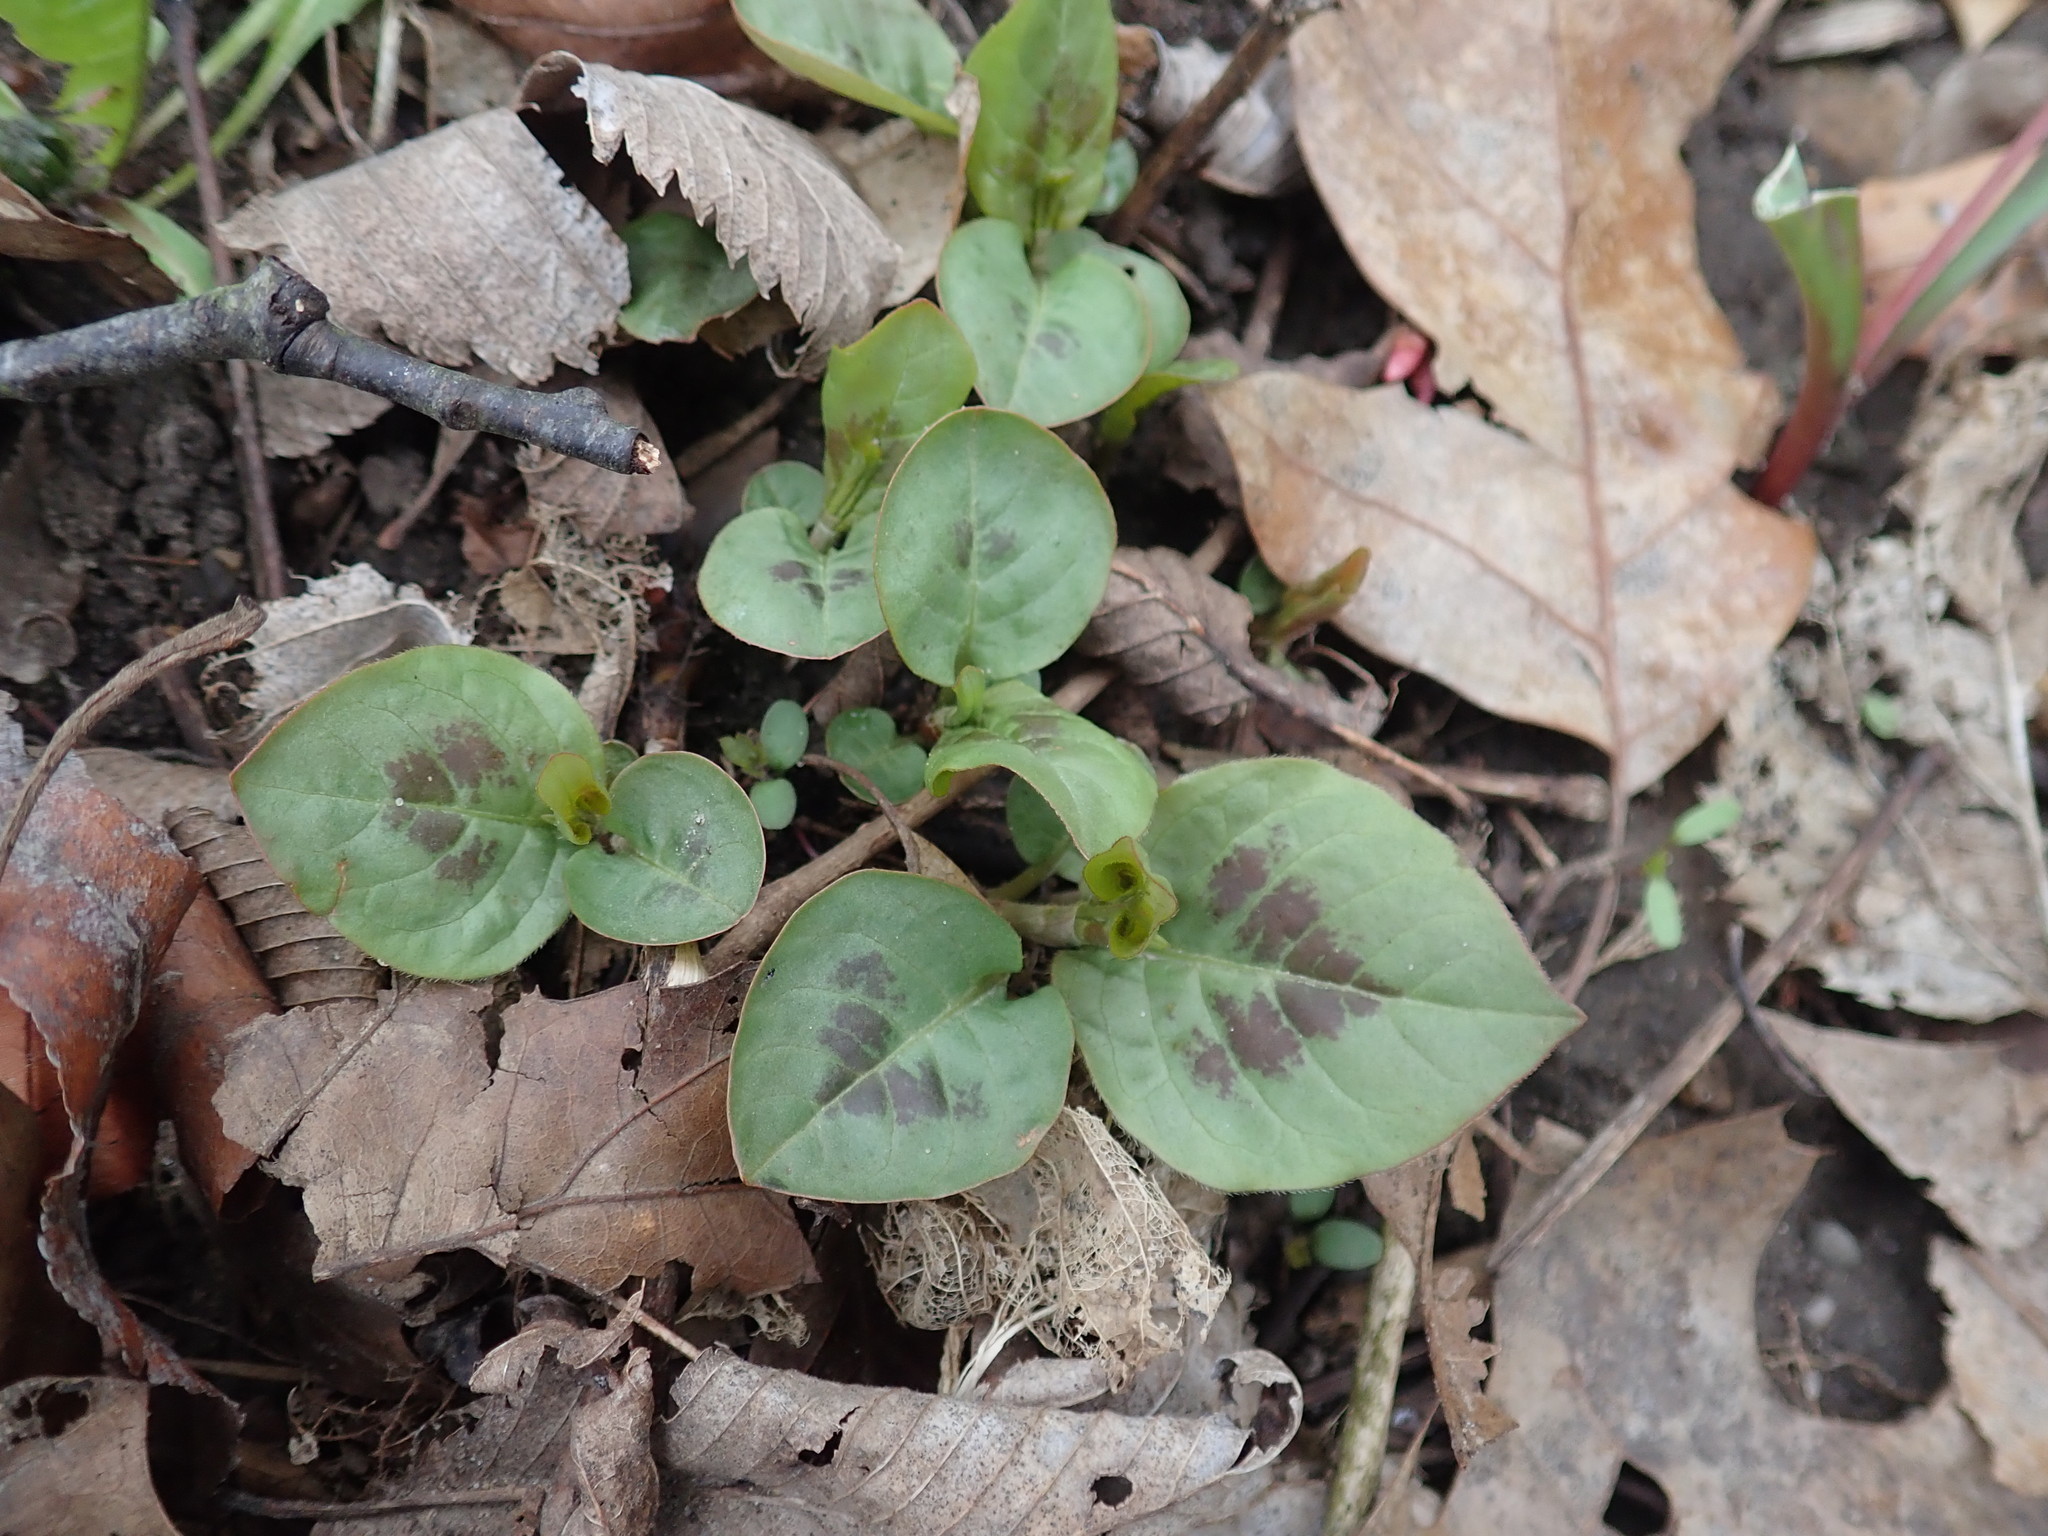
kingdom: Plantae
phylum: Tracheophyta
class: Magnoliopsida
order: Caryophyllales
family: Polygonaceae
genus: Persicaria
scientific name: Persicaria virginiana
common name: Jumpseed
